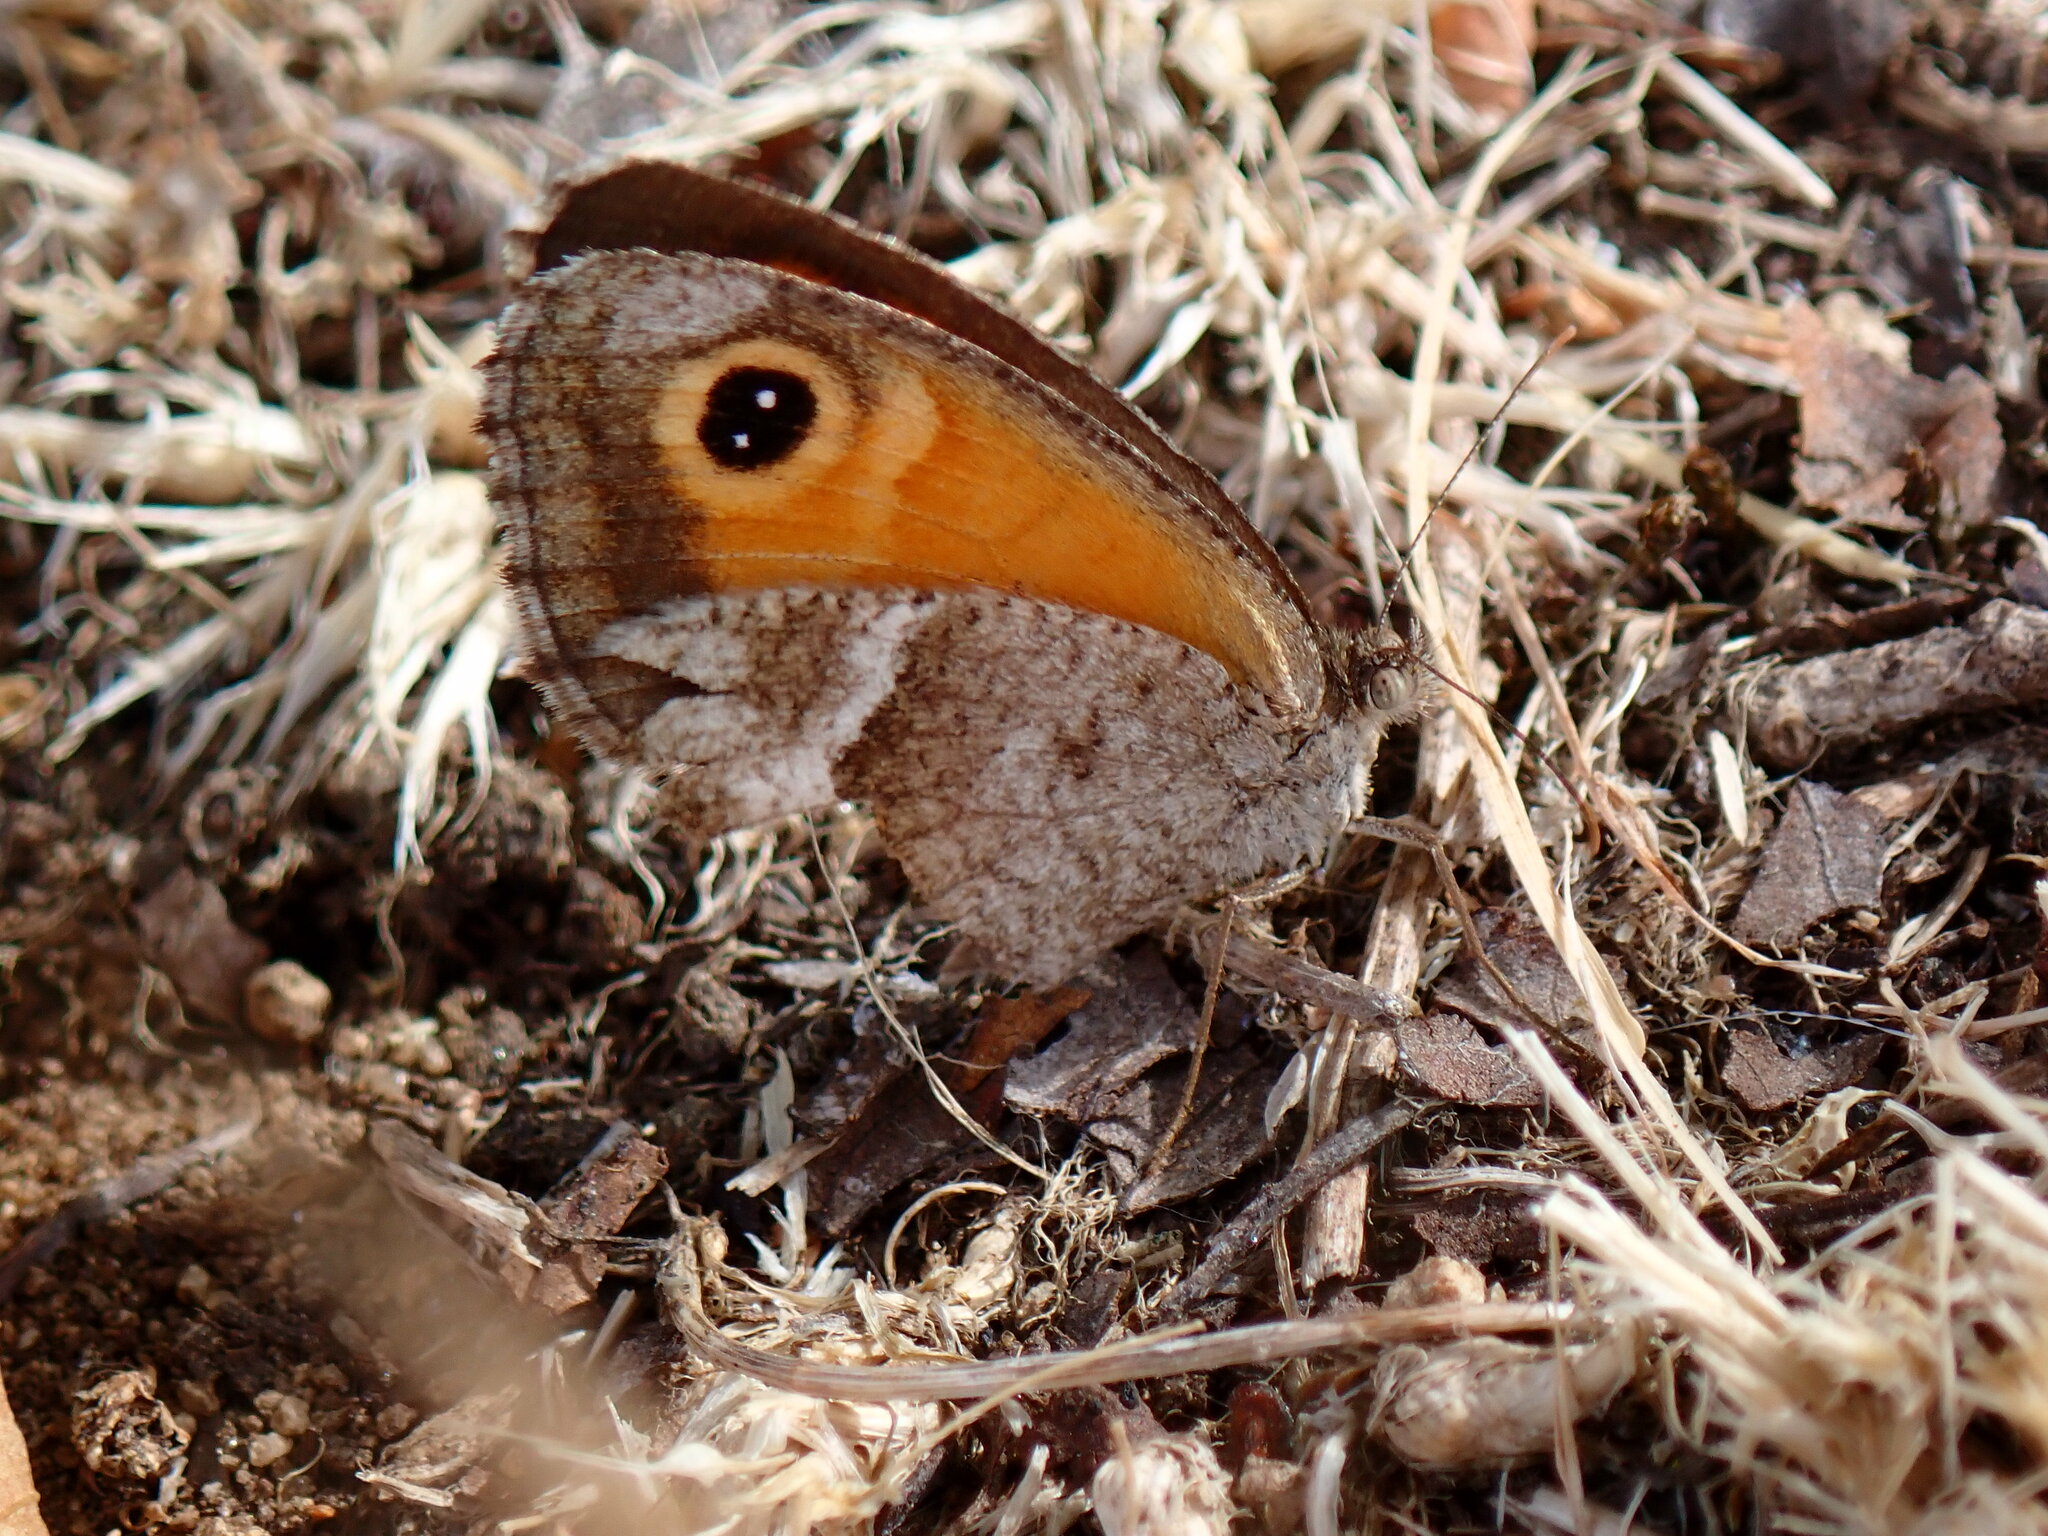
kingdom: Animalia
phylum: Arthropoda
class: Insecta
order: Lepidoptera
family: Nymphalidae
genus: Pyronia
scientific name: Pyronia cecilia
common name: Southern gatekeeper
